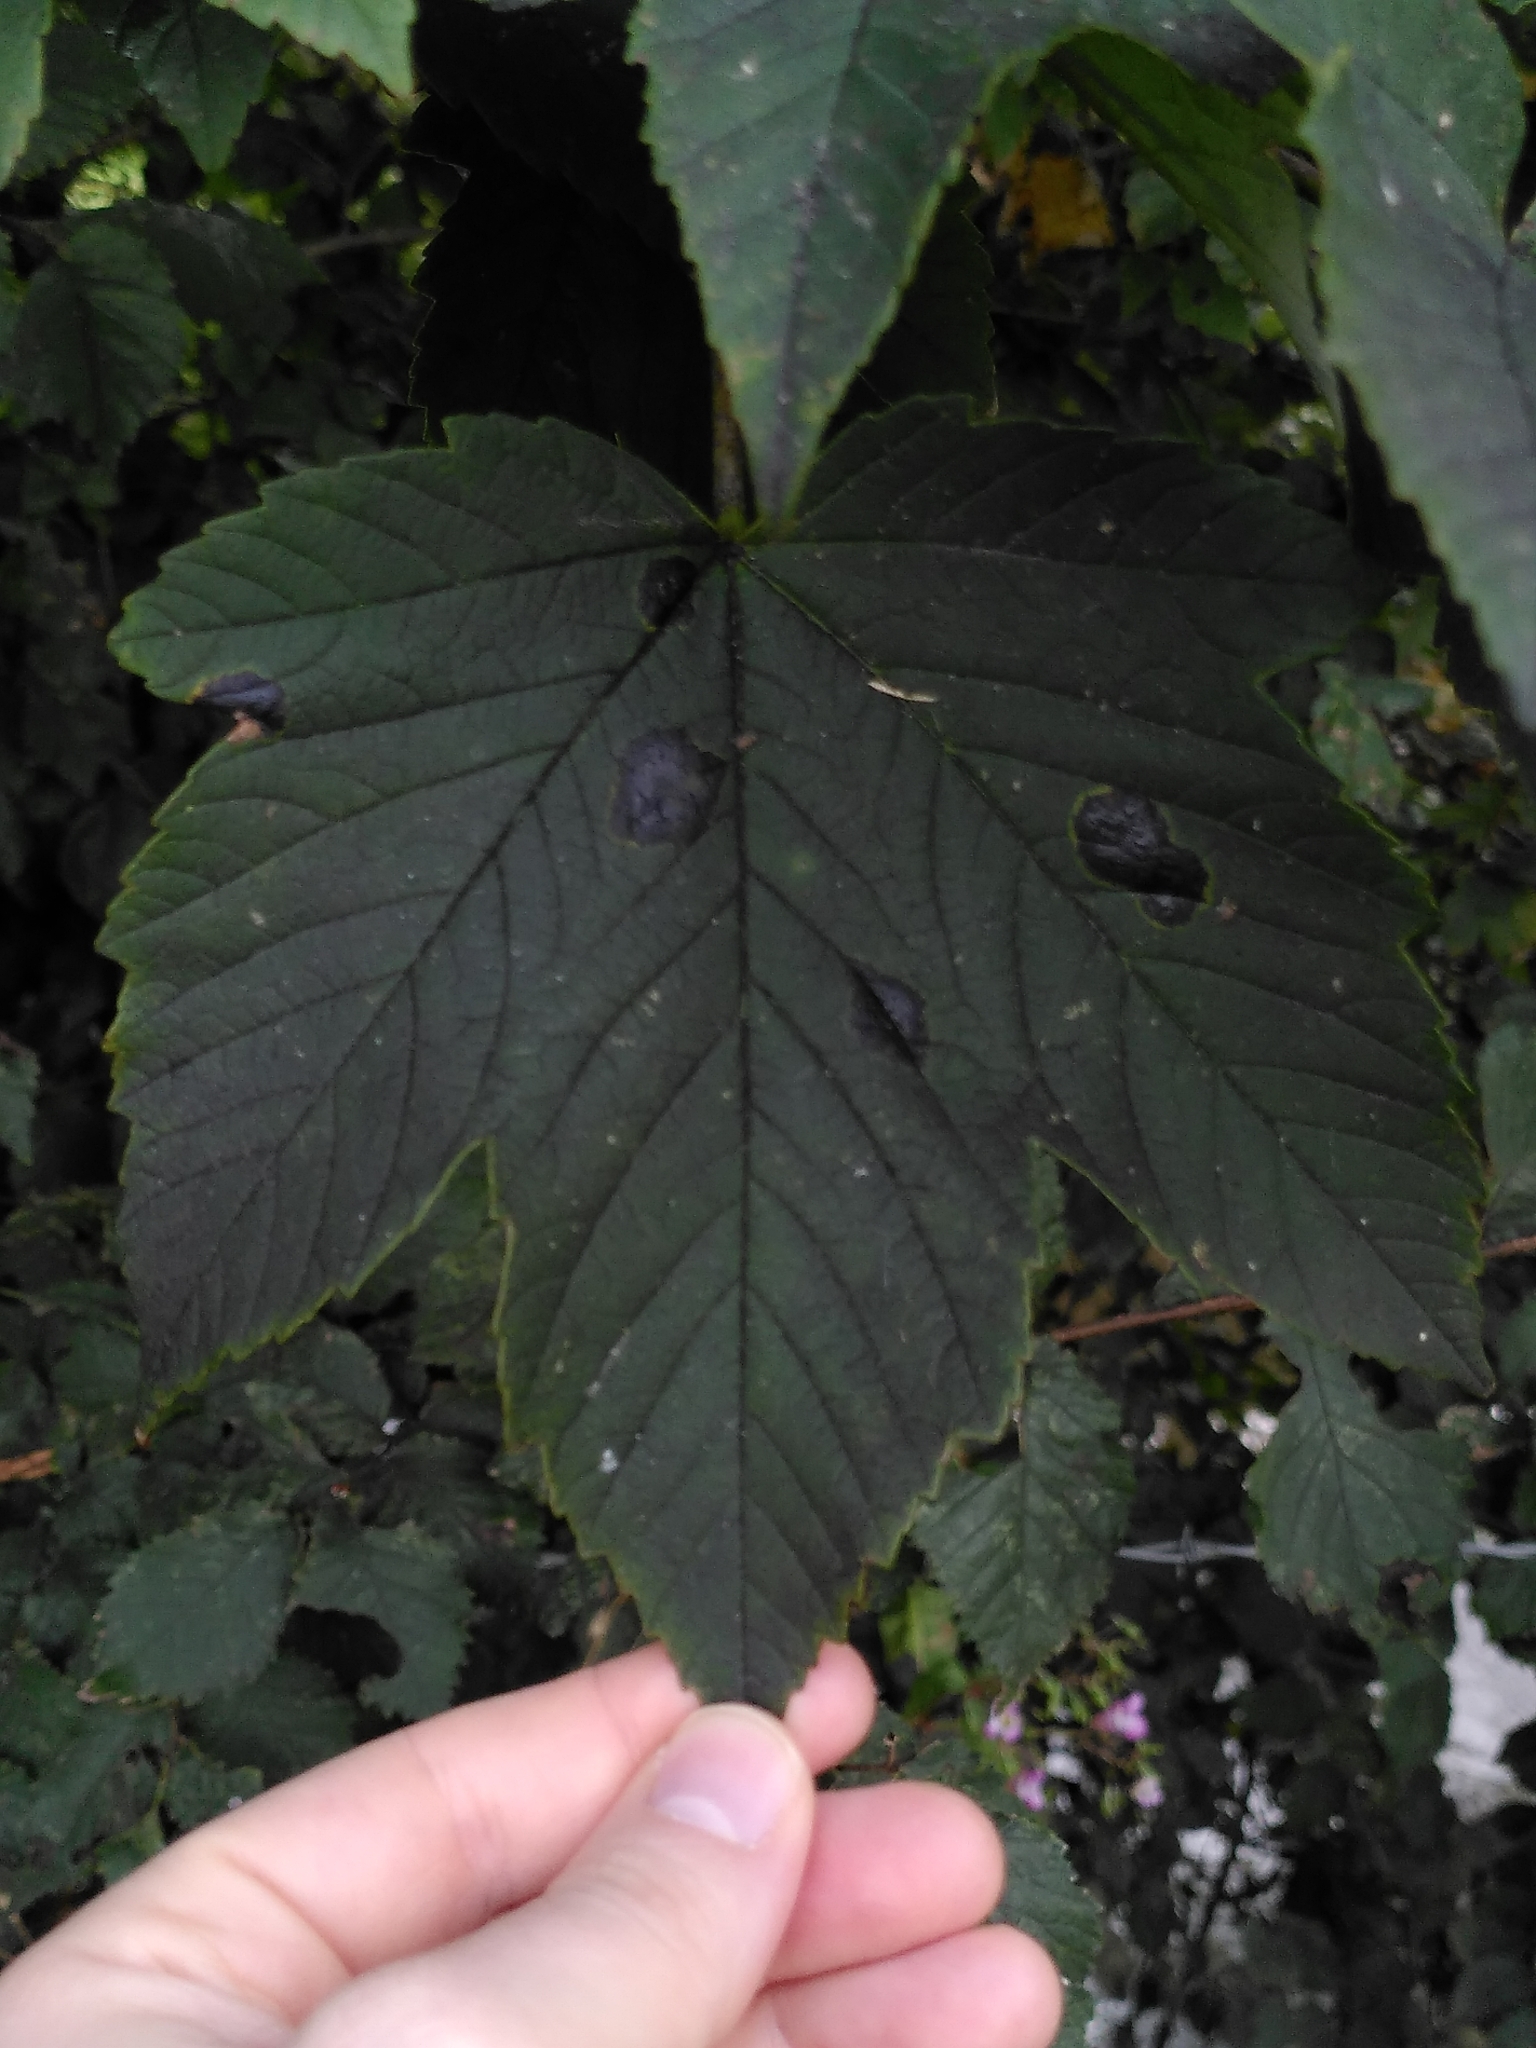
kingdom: Fungi
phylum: Ascomycota
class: Leotiomycetes
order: Rhytismatales
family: Rhytismataceae
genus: Rhytisma
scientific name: Rhytisma acerinum
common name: European tar spot
